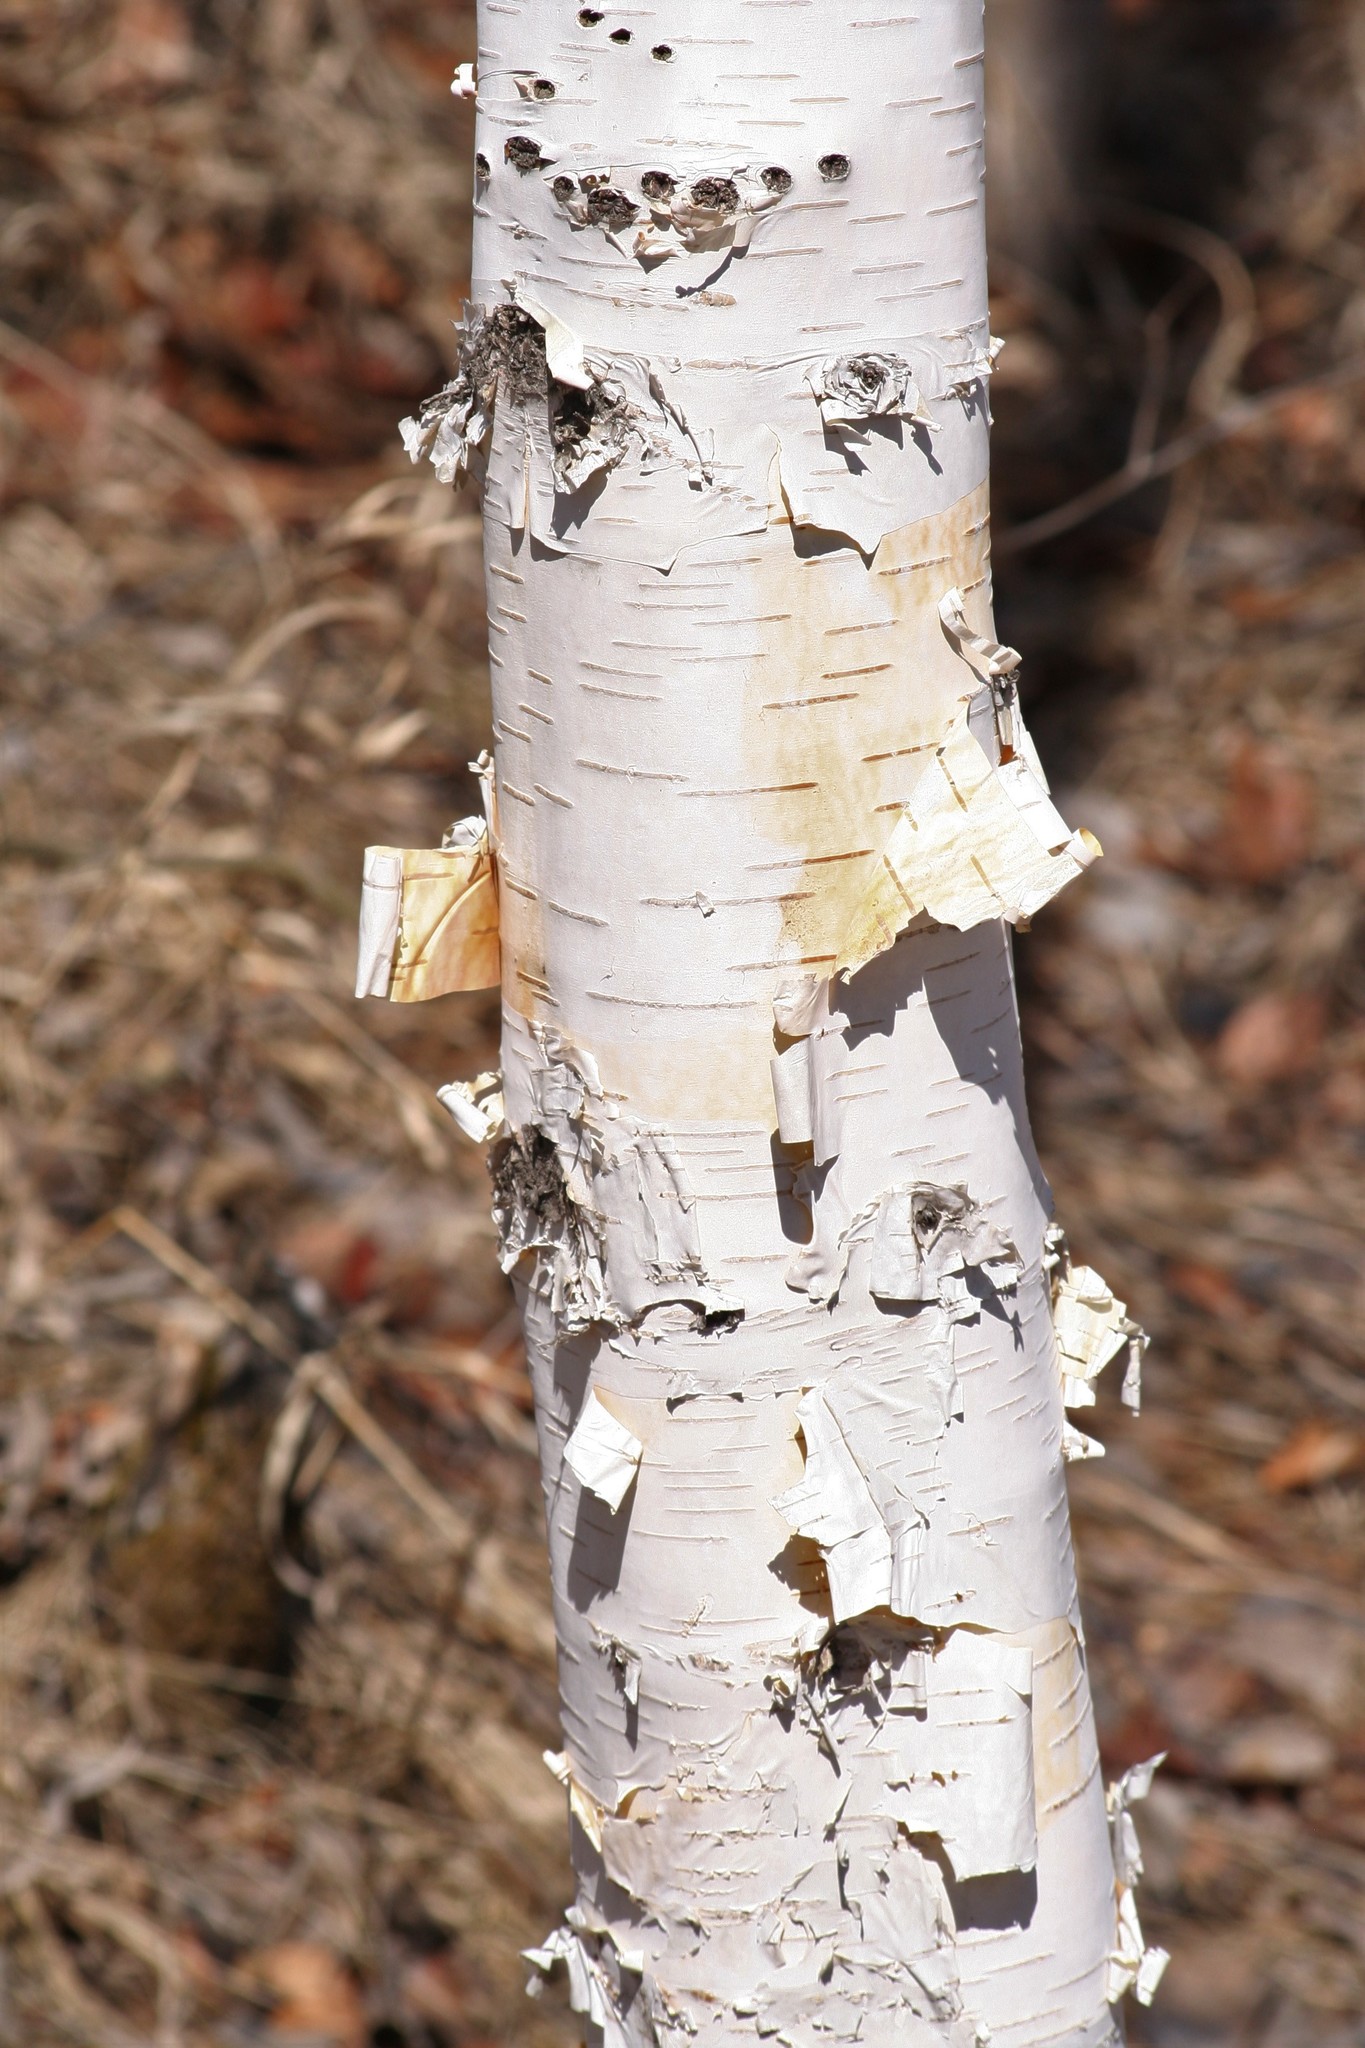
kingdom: Plantae
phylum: Tracheophyta
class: Magnoliopsida
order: Fagales
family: Betulaceae
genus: Betula
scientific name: Betula papyrifera
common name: Paper birch
